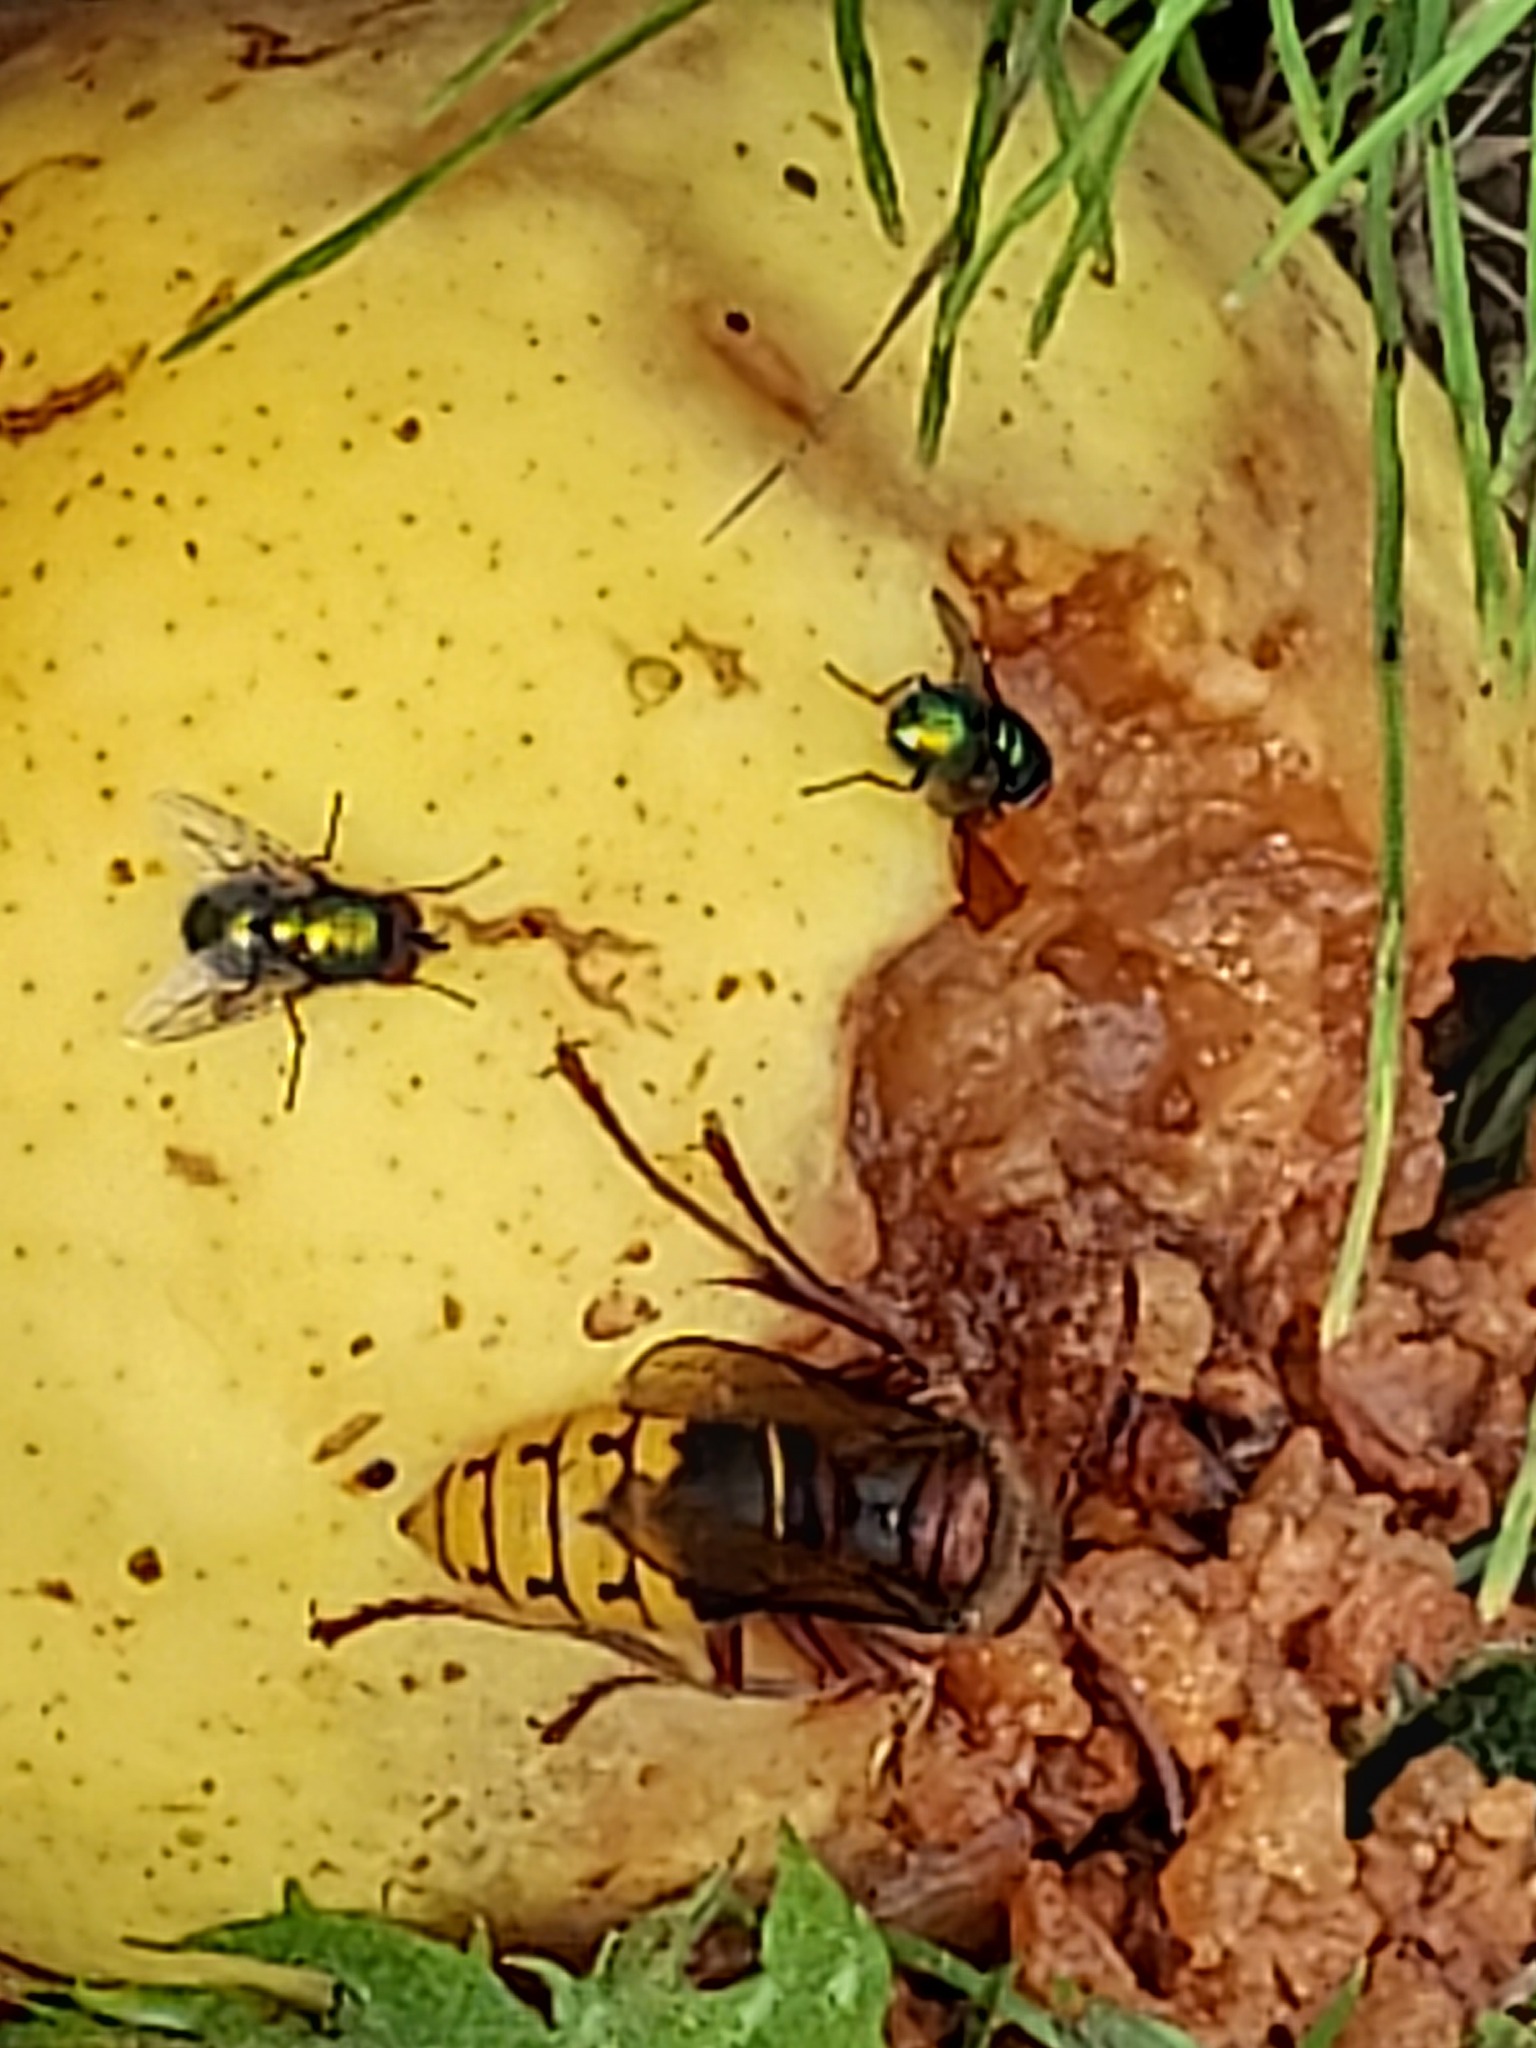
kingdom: Animalia
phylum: Arthropoda
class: Insecta
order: Hymenoptera
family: Vespidae
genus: Vespa
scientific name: Vespa crabro
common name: Hornet
